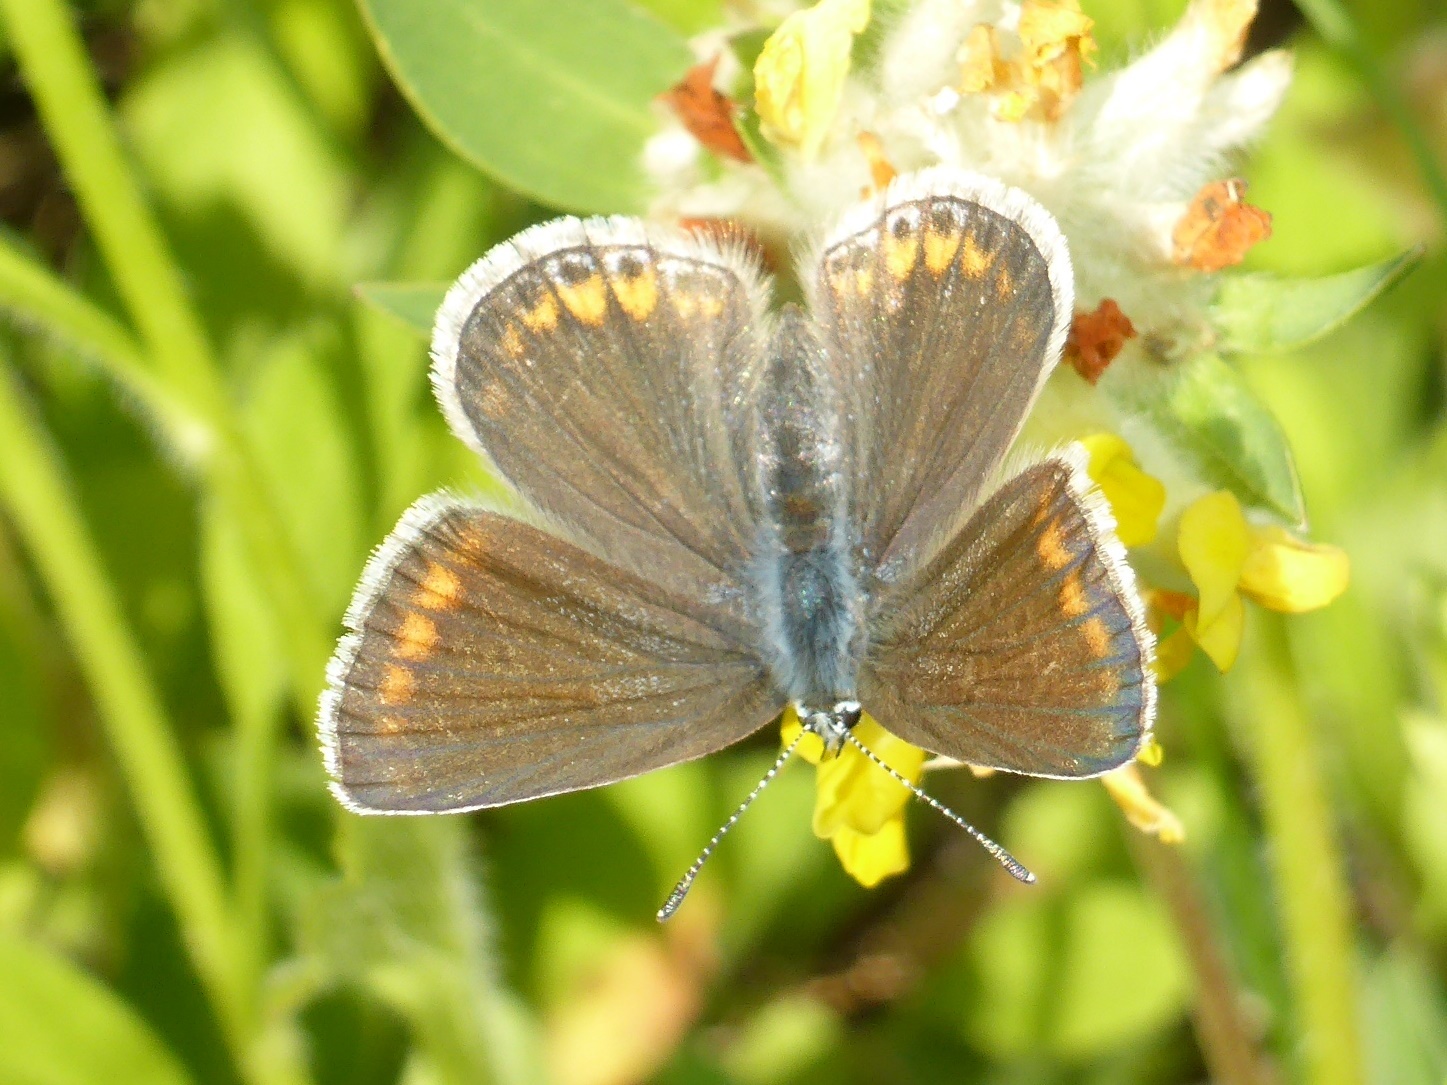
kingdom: Animalia
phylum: Arthropoda
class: Insecta
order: Lepidoptera
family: Lycaenidae
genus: Polyommatus
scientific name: Polyommatus icarus
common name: Common blue
